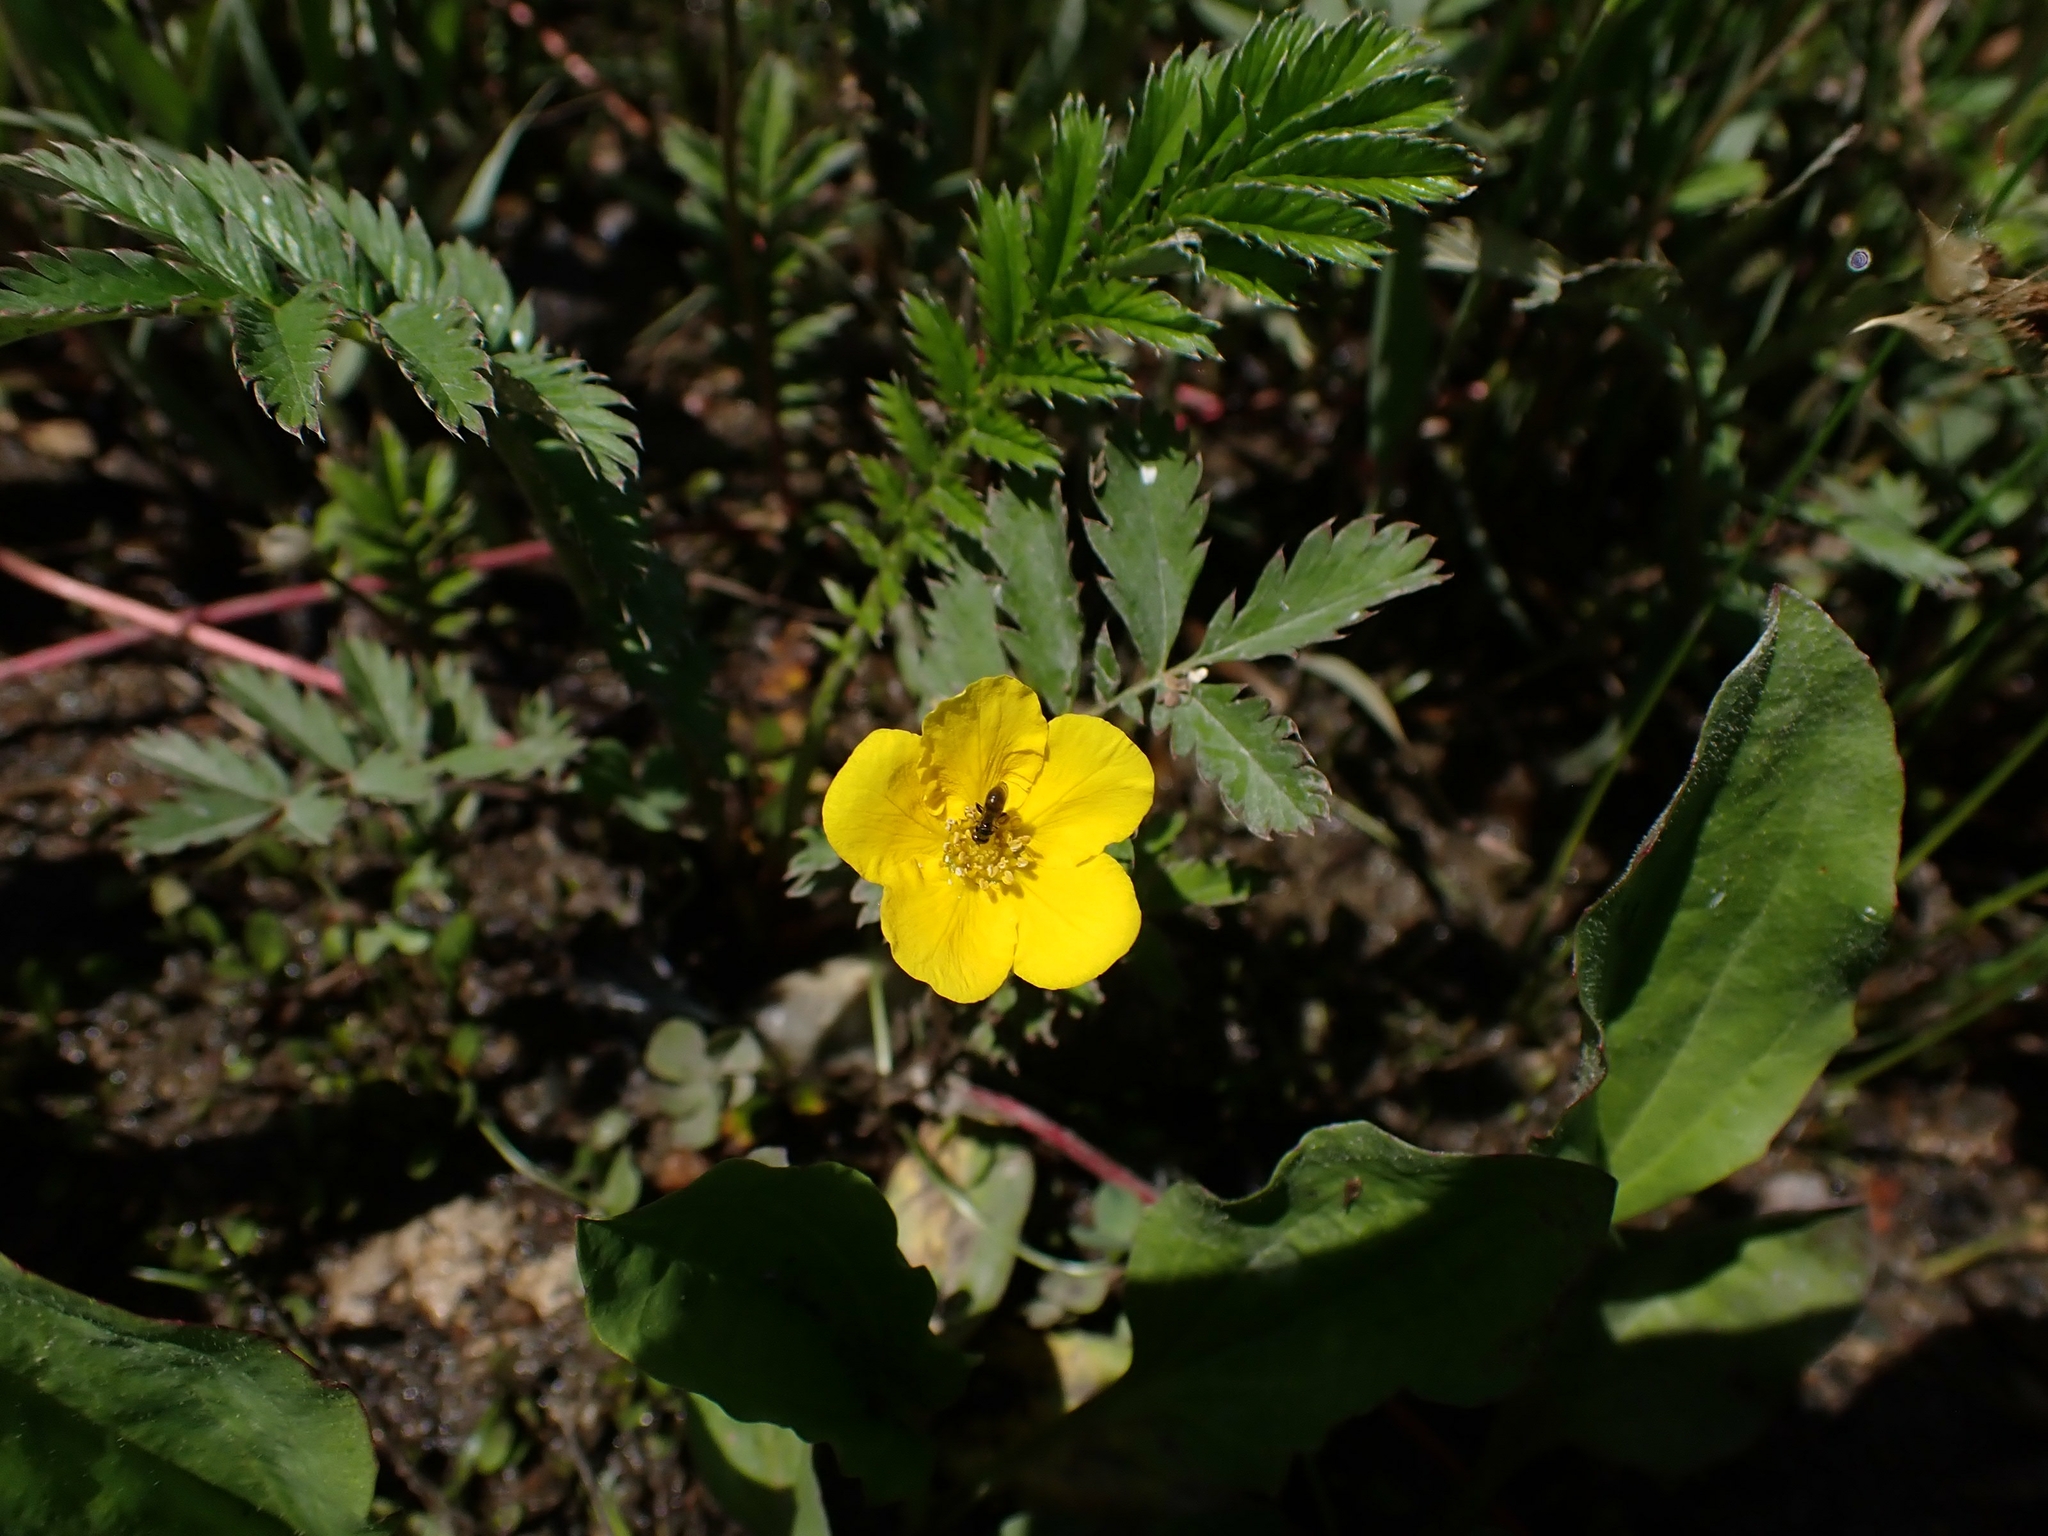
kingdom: Plantae
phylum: Tracheophyta
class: Magnoliopsida
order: Rosales
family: Rosaceae
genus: Argentina
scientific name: Argentina anserina
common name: Common silverweed
